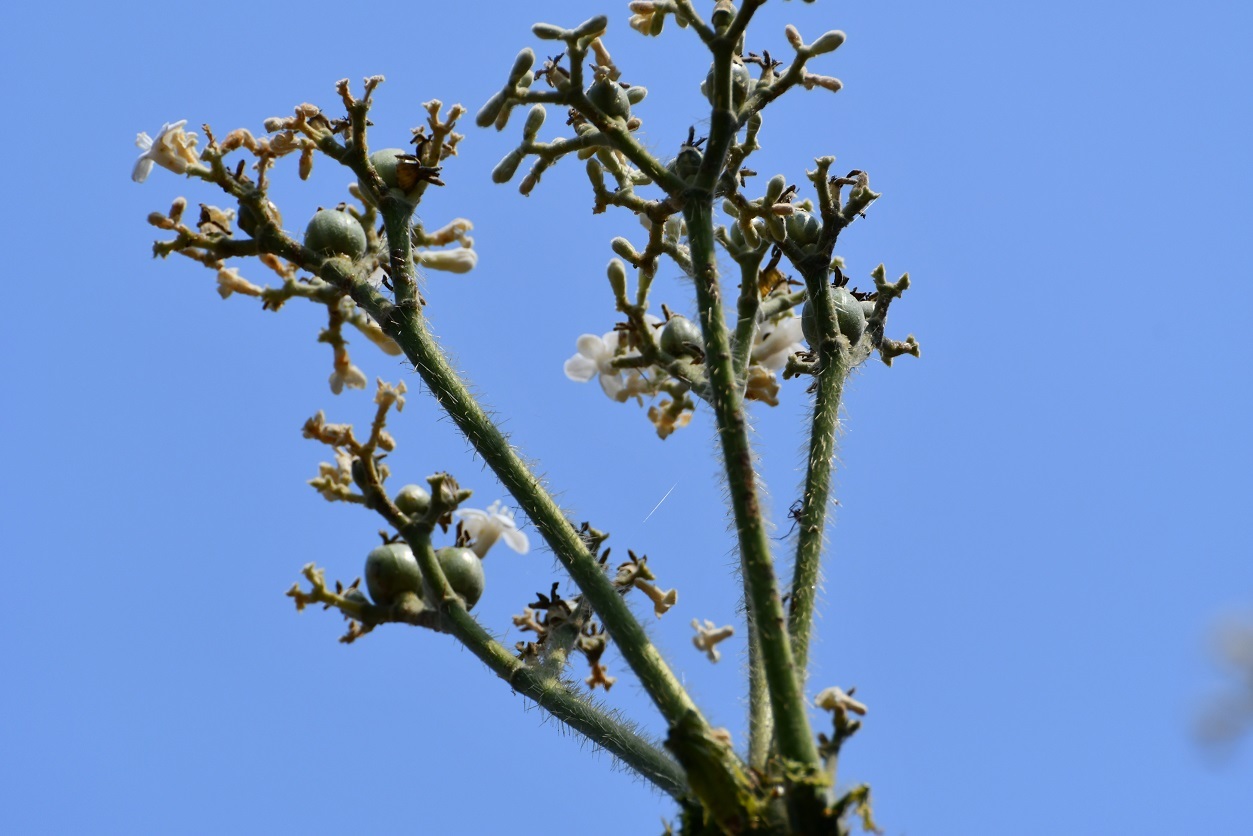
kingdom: Plantae
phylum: Tracheophyta
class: Magnoliopsida
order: Malpighiales
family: Euphorbiaceae
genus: Cnidoscolus
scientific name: Cnidoscolus aconitifolius
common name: Cabbage-star
